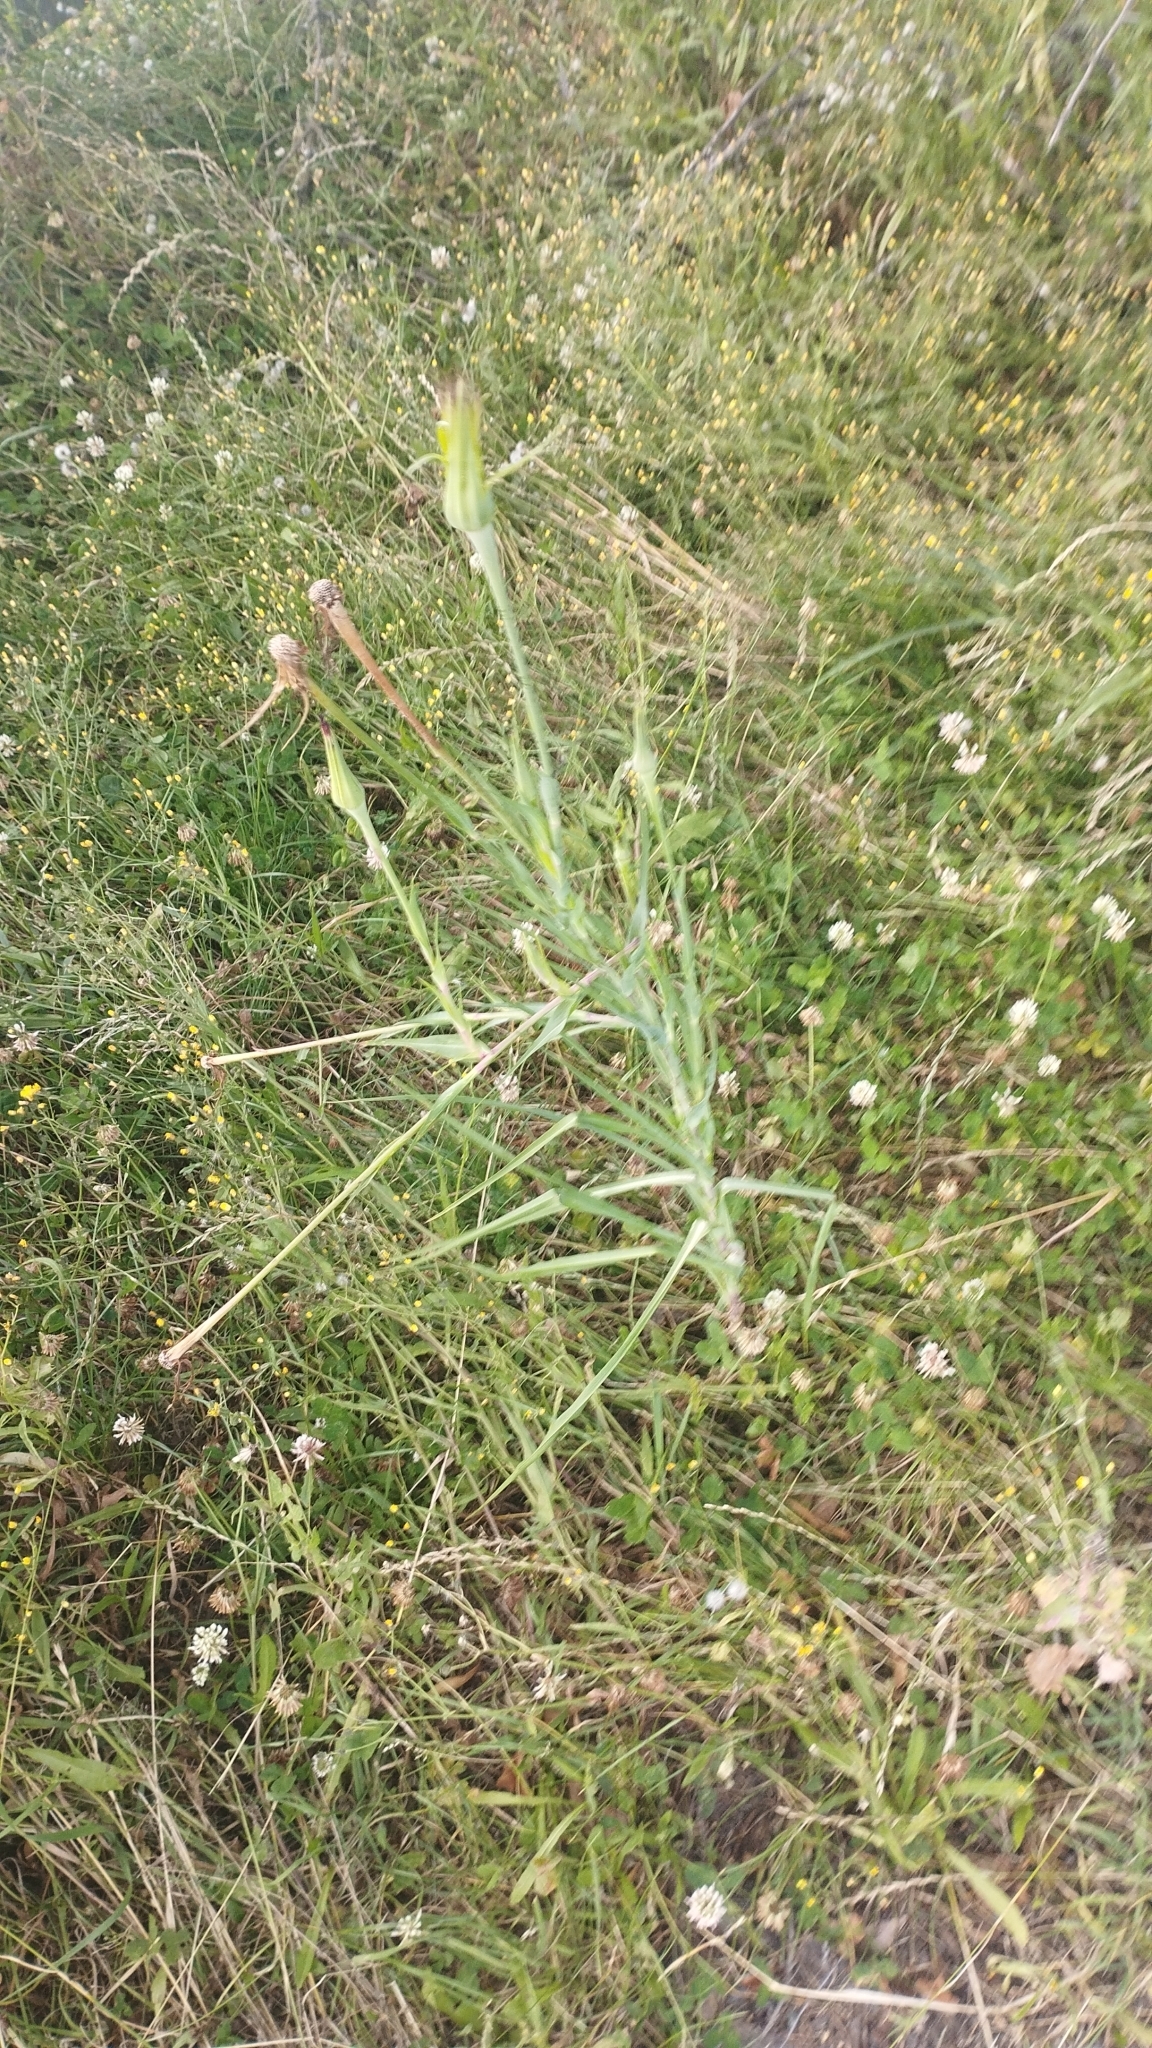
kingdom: Plantae
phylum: Tracheophyta
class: Magnoliopsida
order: Asterales
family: Asteraceae
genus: Tragopogon
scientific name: Tragopogon porrifolius
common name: Salsify
